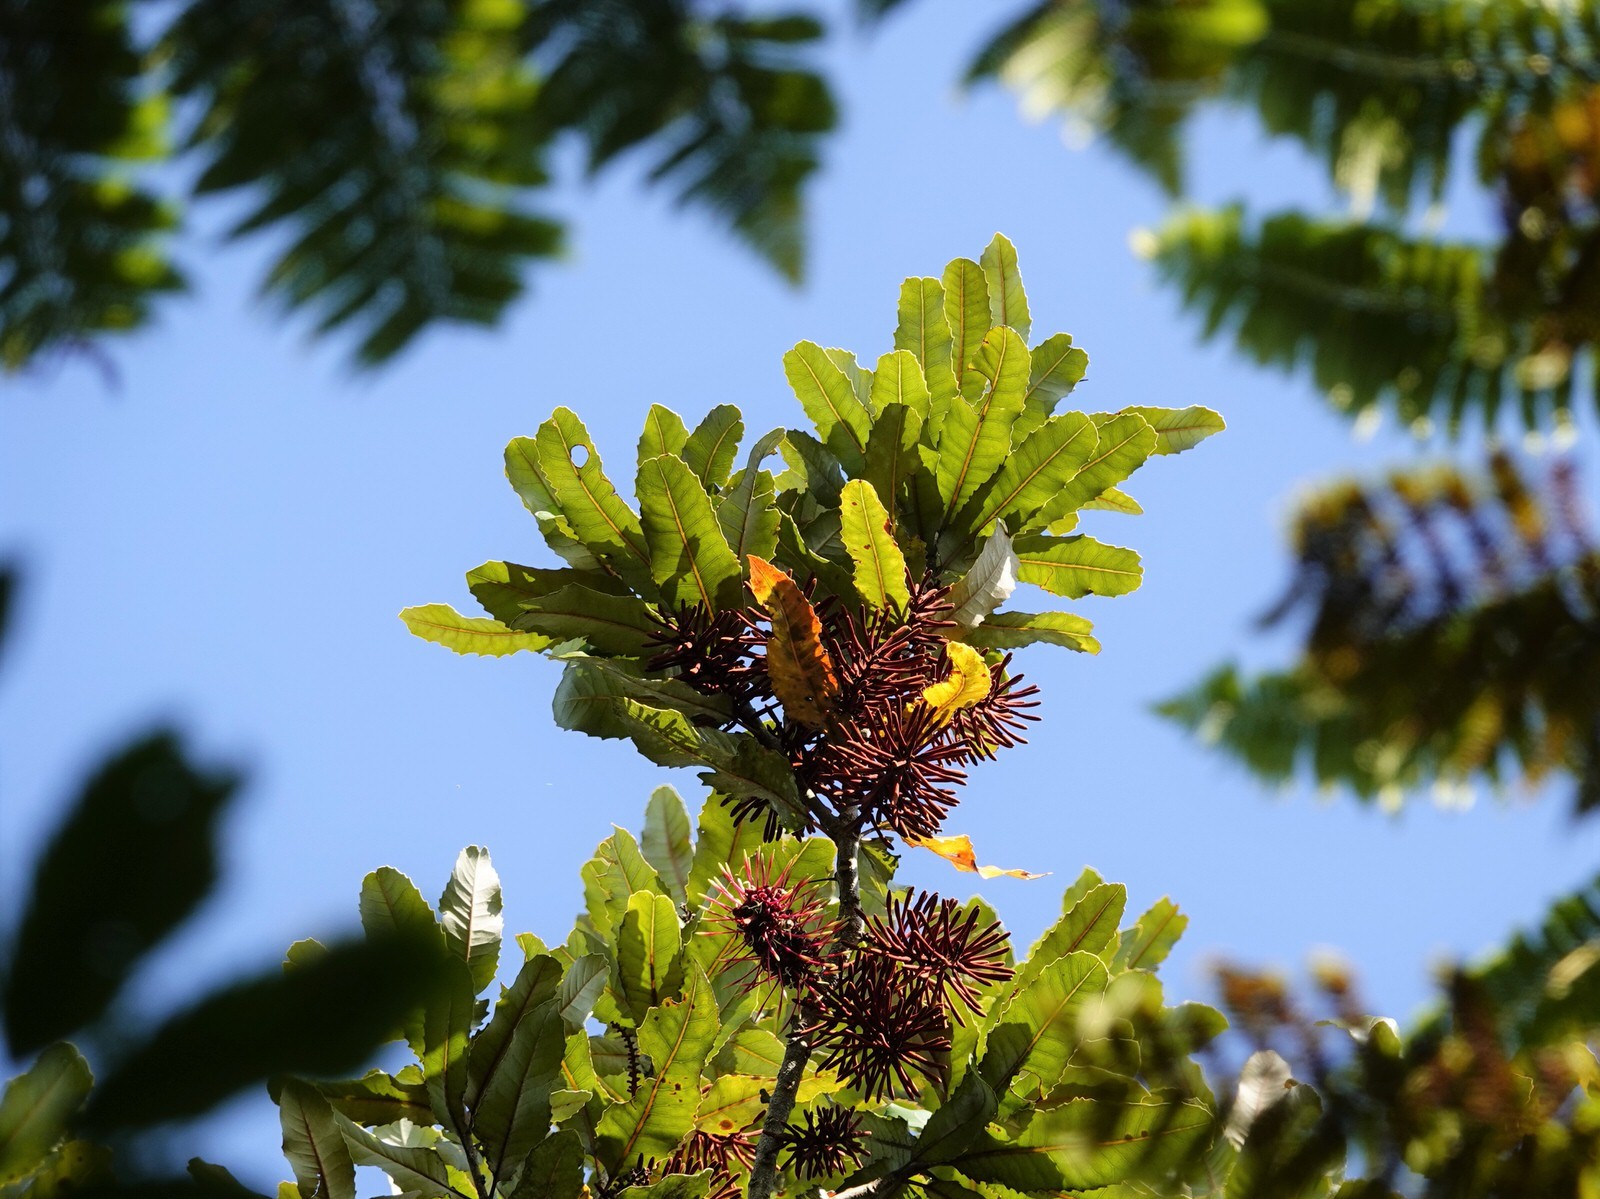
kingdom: Plantae
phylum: Tracheophyta
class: Magnoliopsida
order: Proteales
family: Proteaceae
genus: Knightia
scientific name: Knightia excelsa
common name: New zealand-honeysuckle
